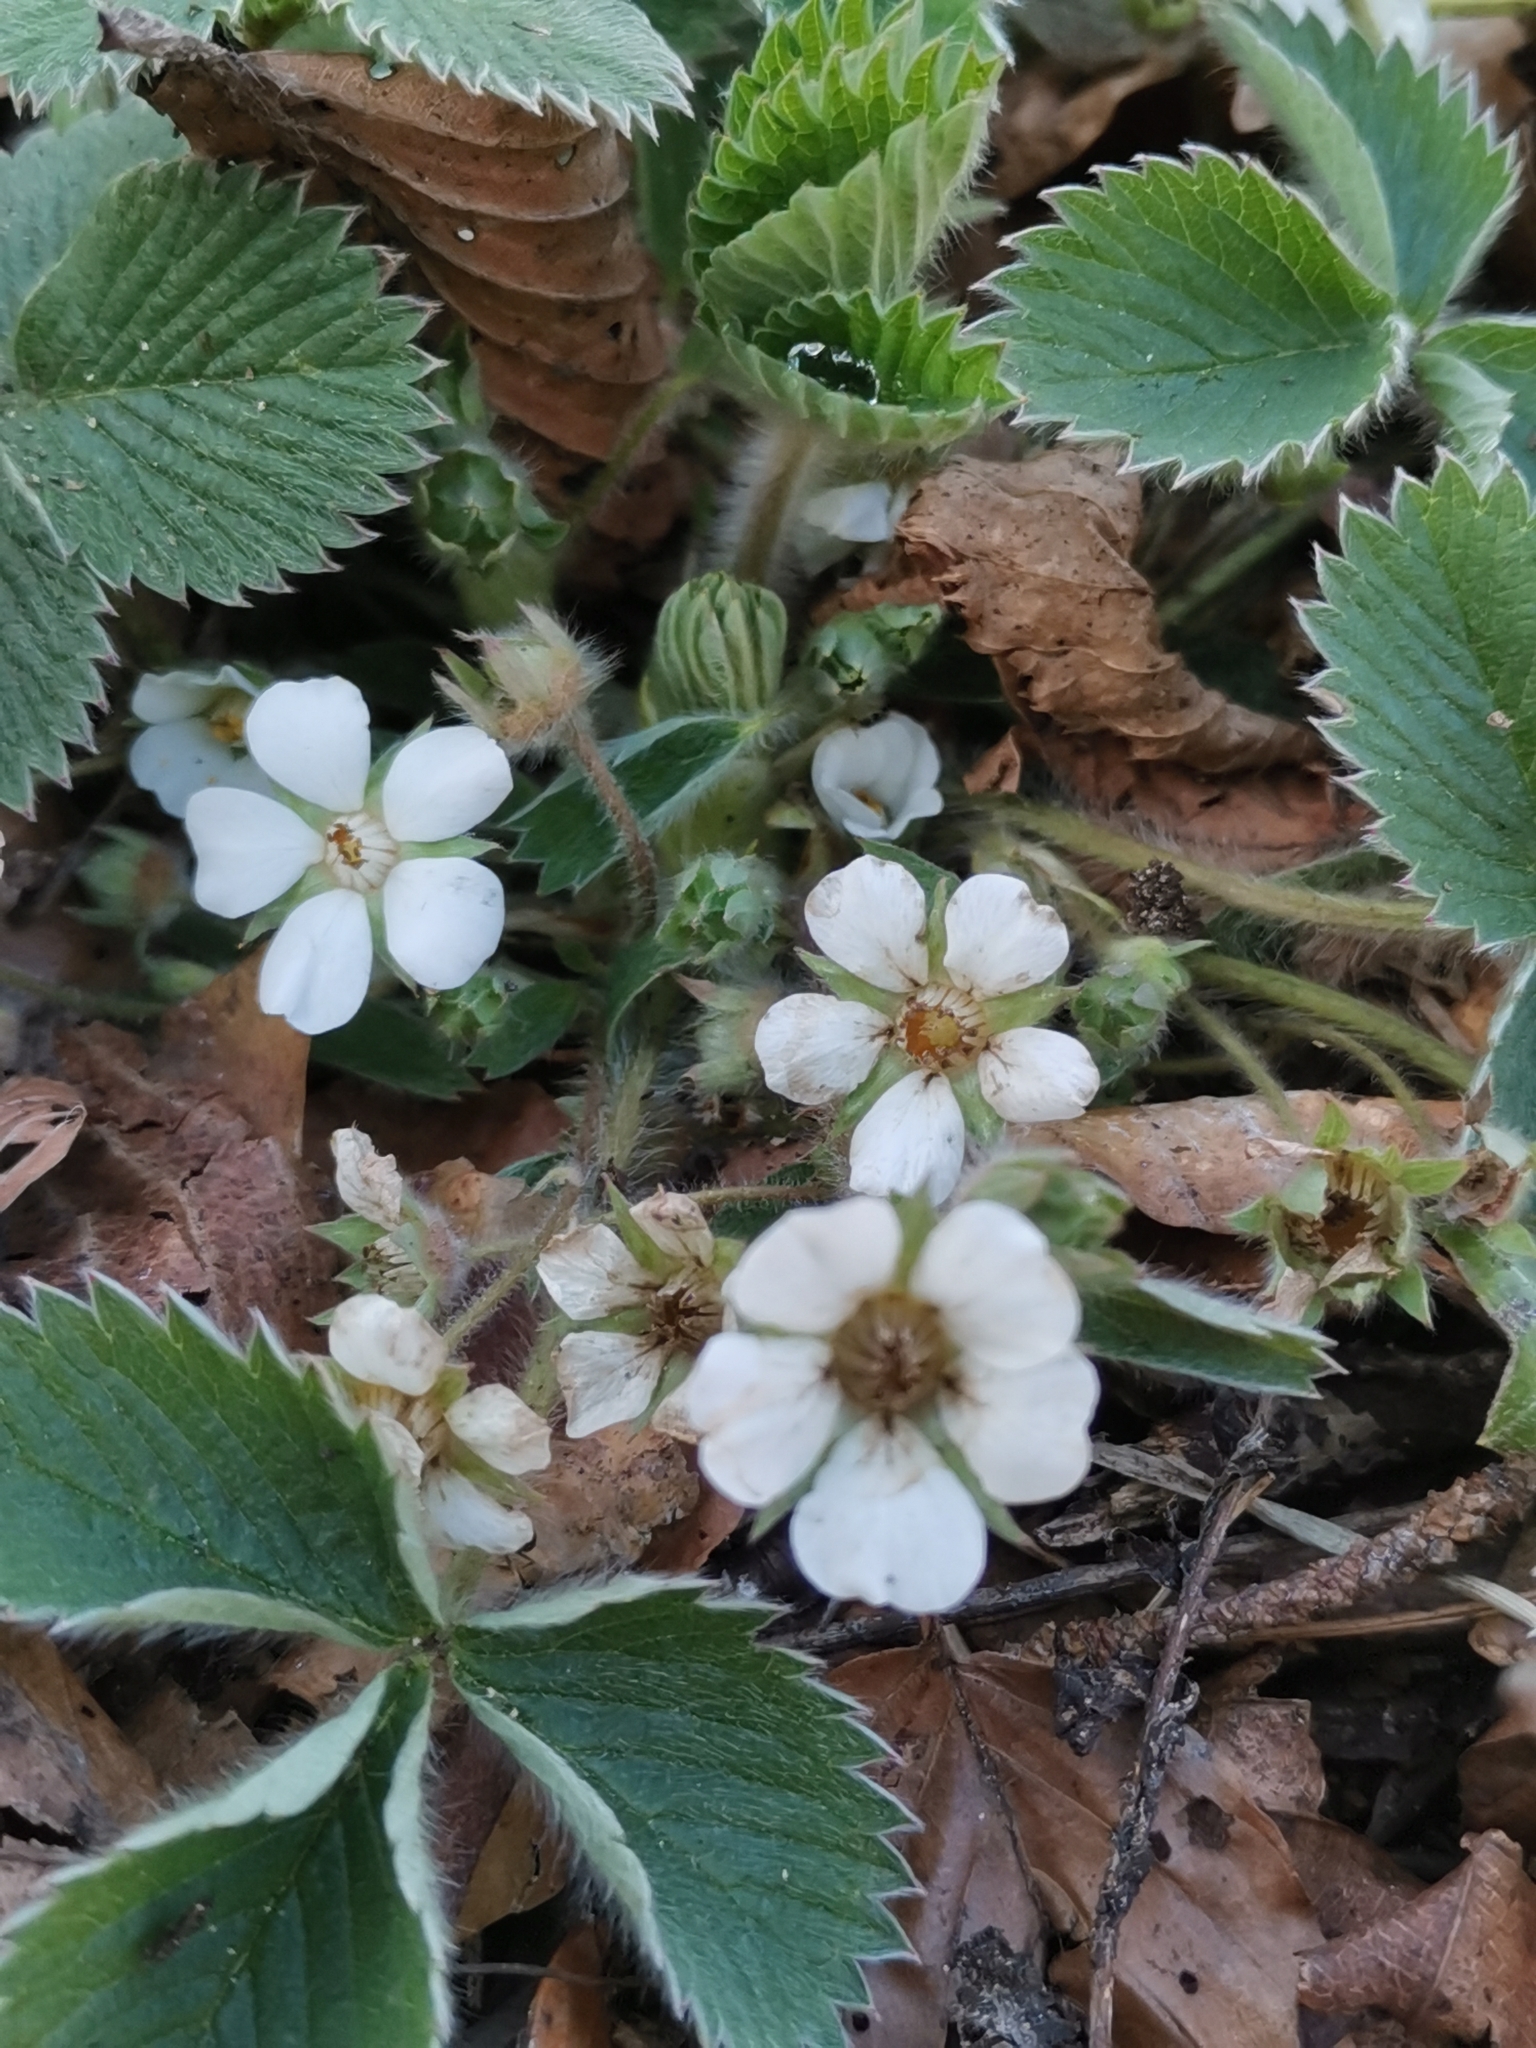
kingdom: Plantae
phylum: Tracheophyta
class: Magnoliopsida
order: Rosales
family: Rosaceae
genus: Potentilla
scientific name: Potentilla carniolica
